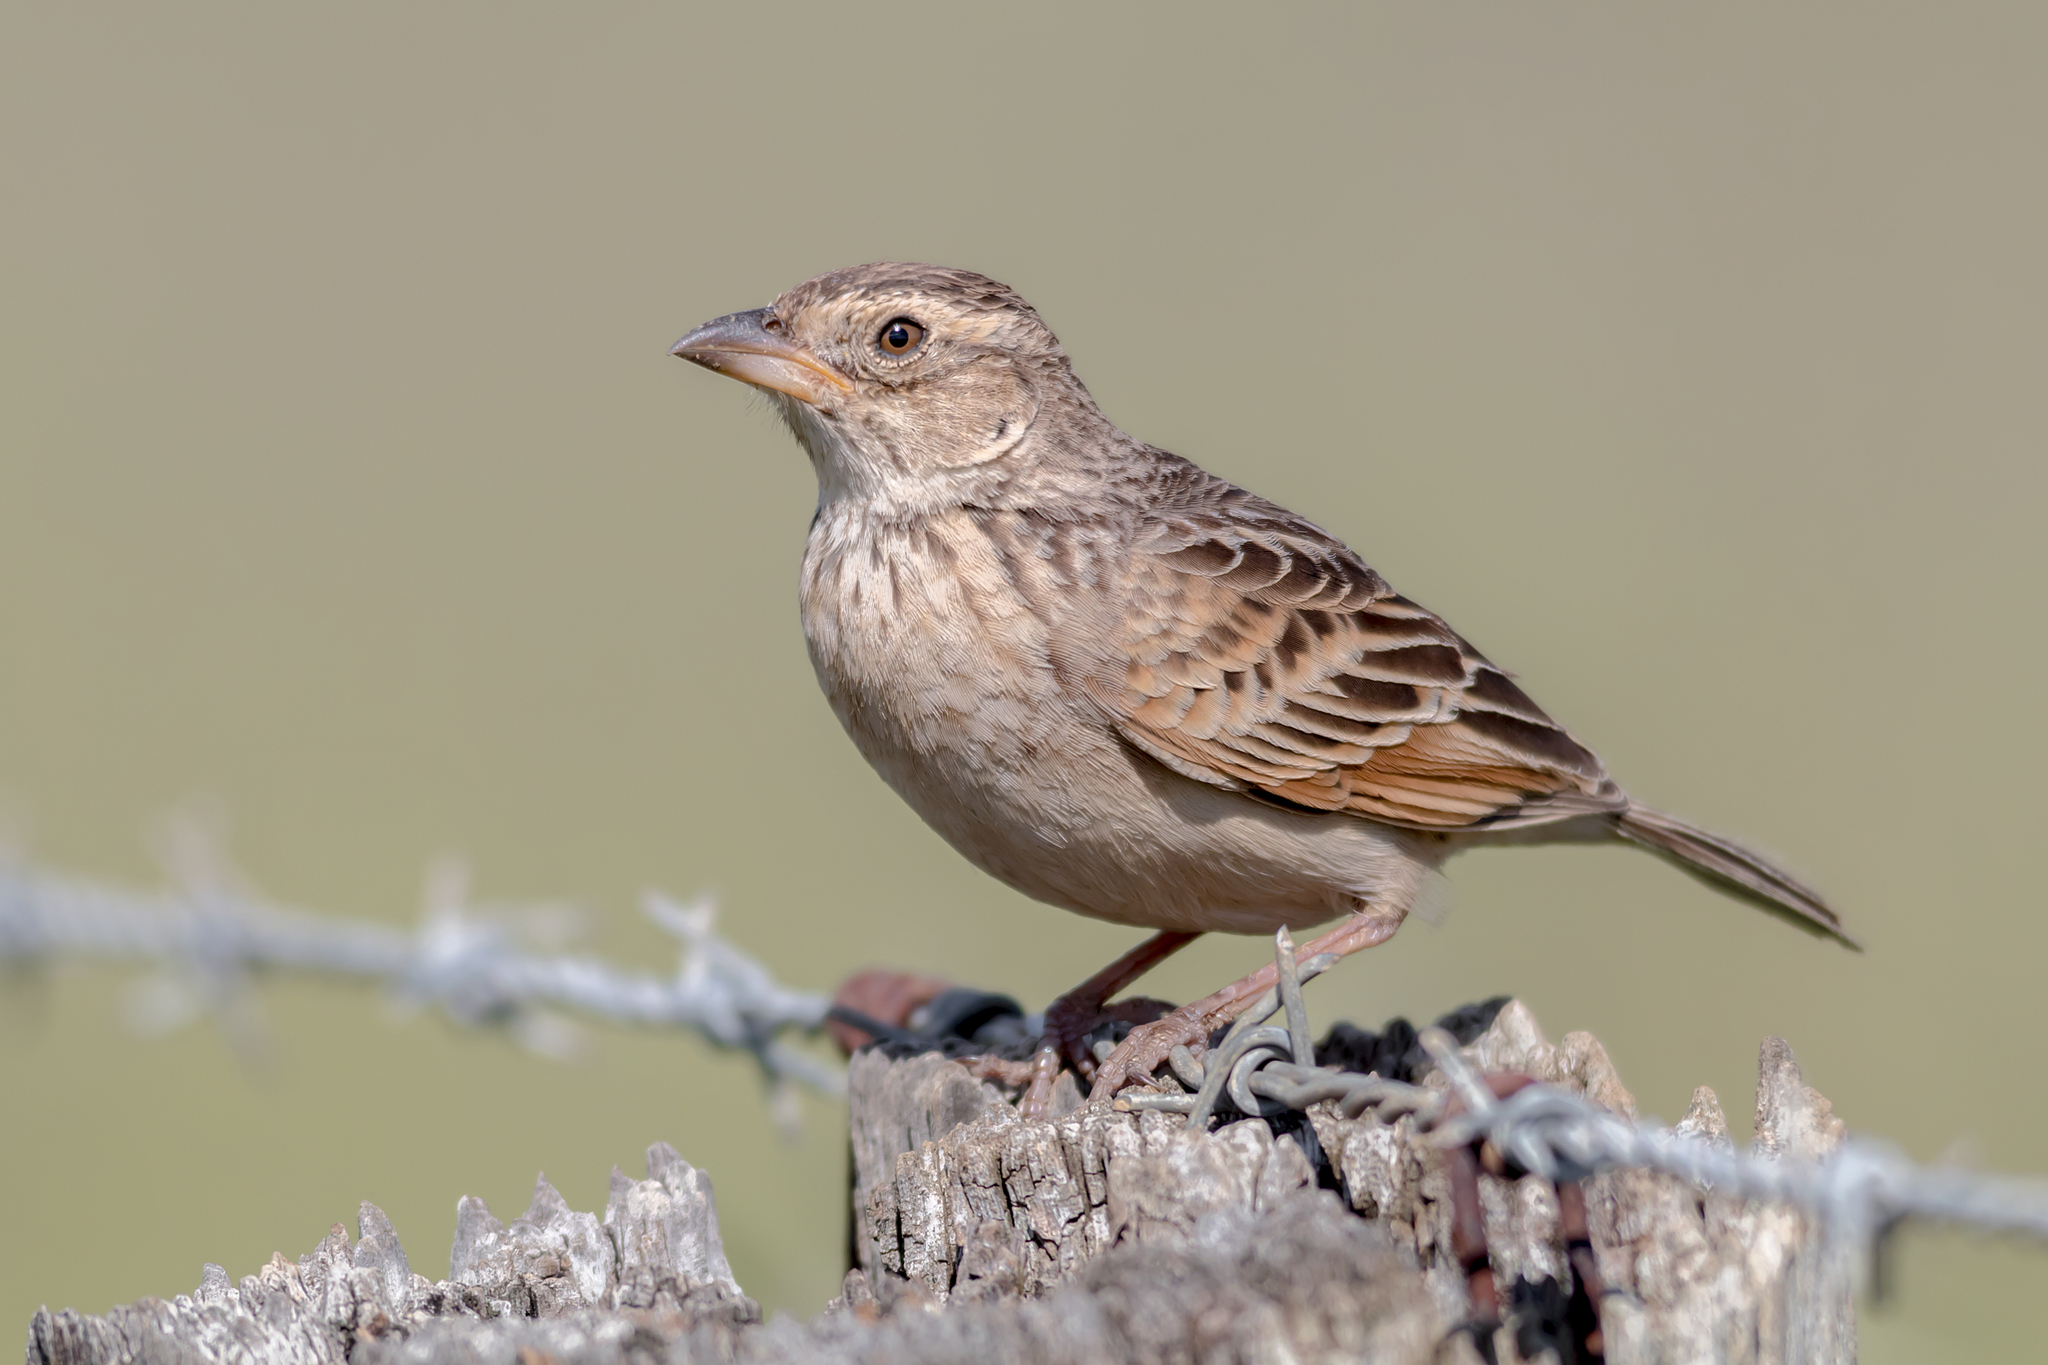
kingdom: Animalia
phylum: Chordata
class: Aves
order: Passeriformes
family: Alaudidae
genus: Mirafra
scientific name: Mirafra javanica
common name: Horsfield's bush lark
